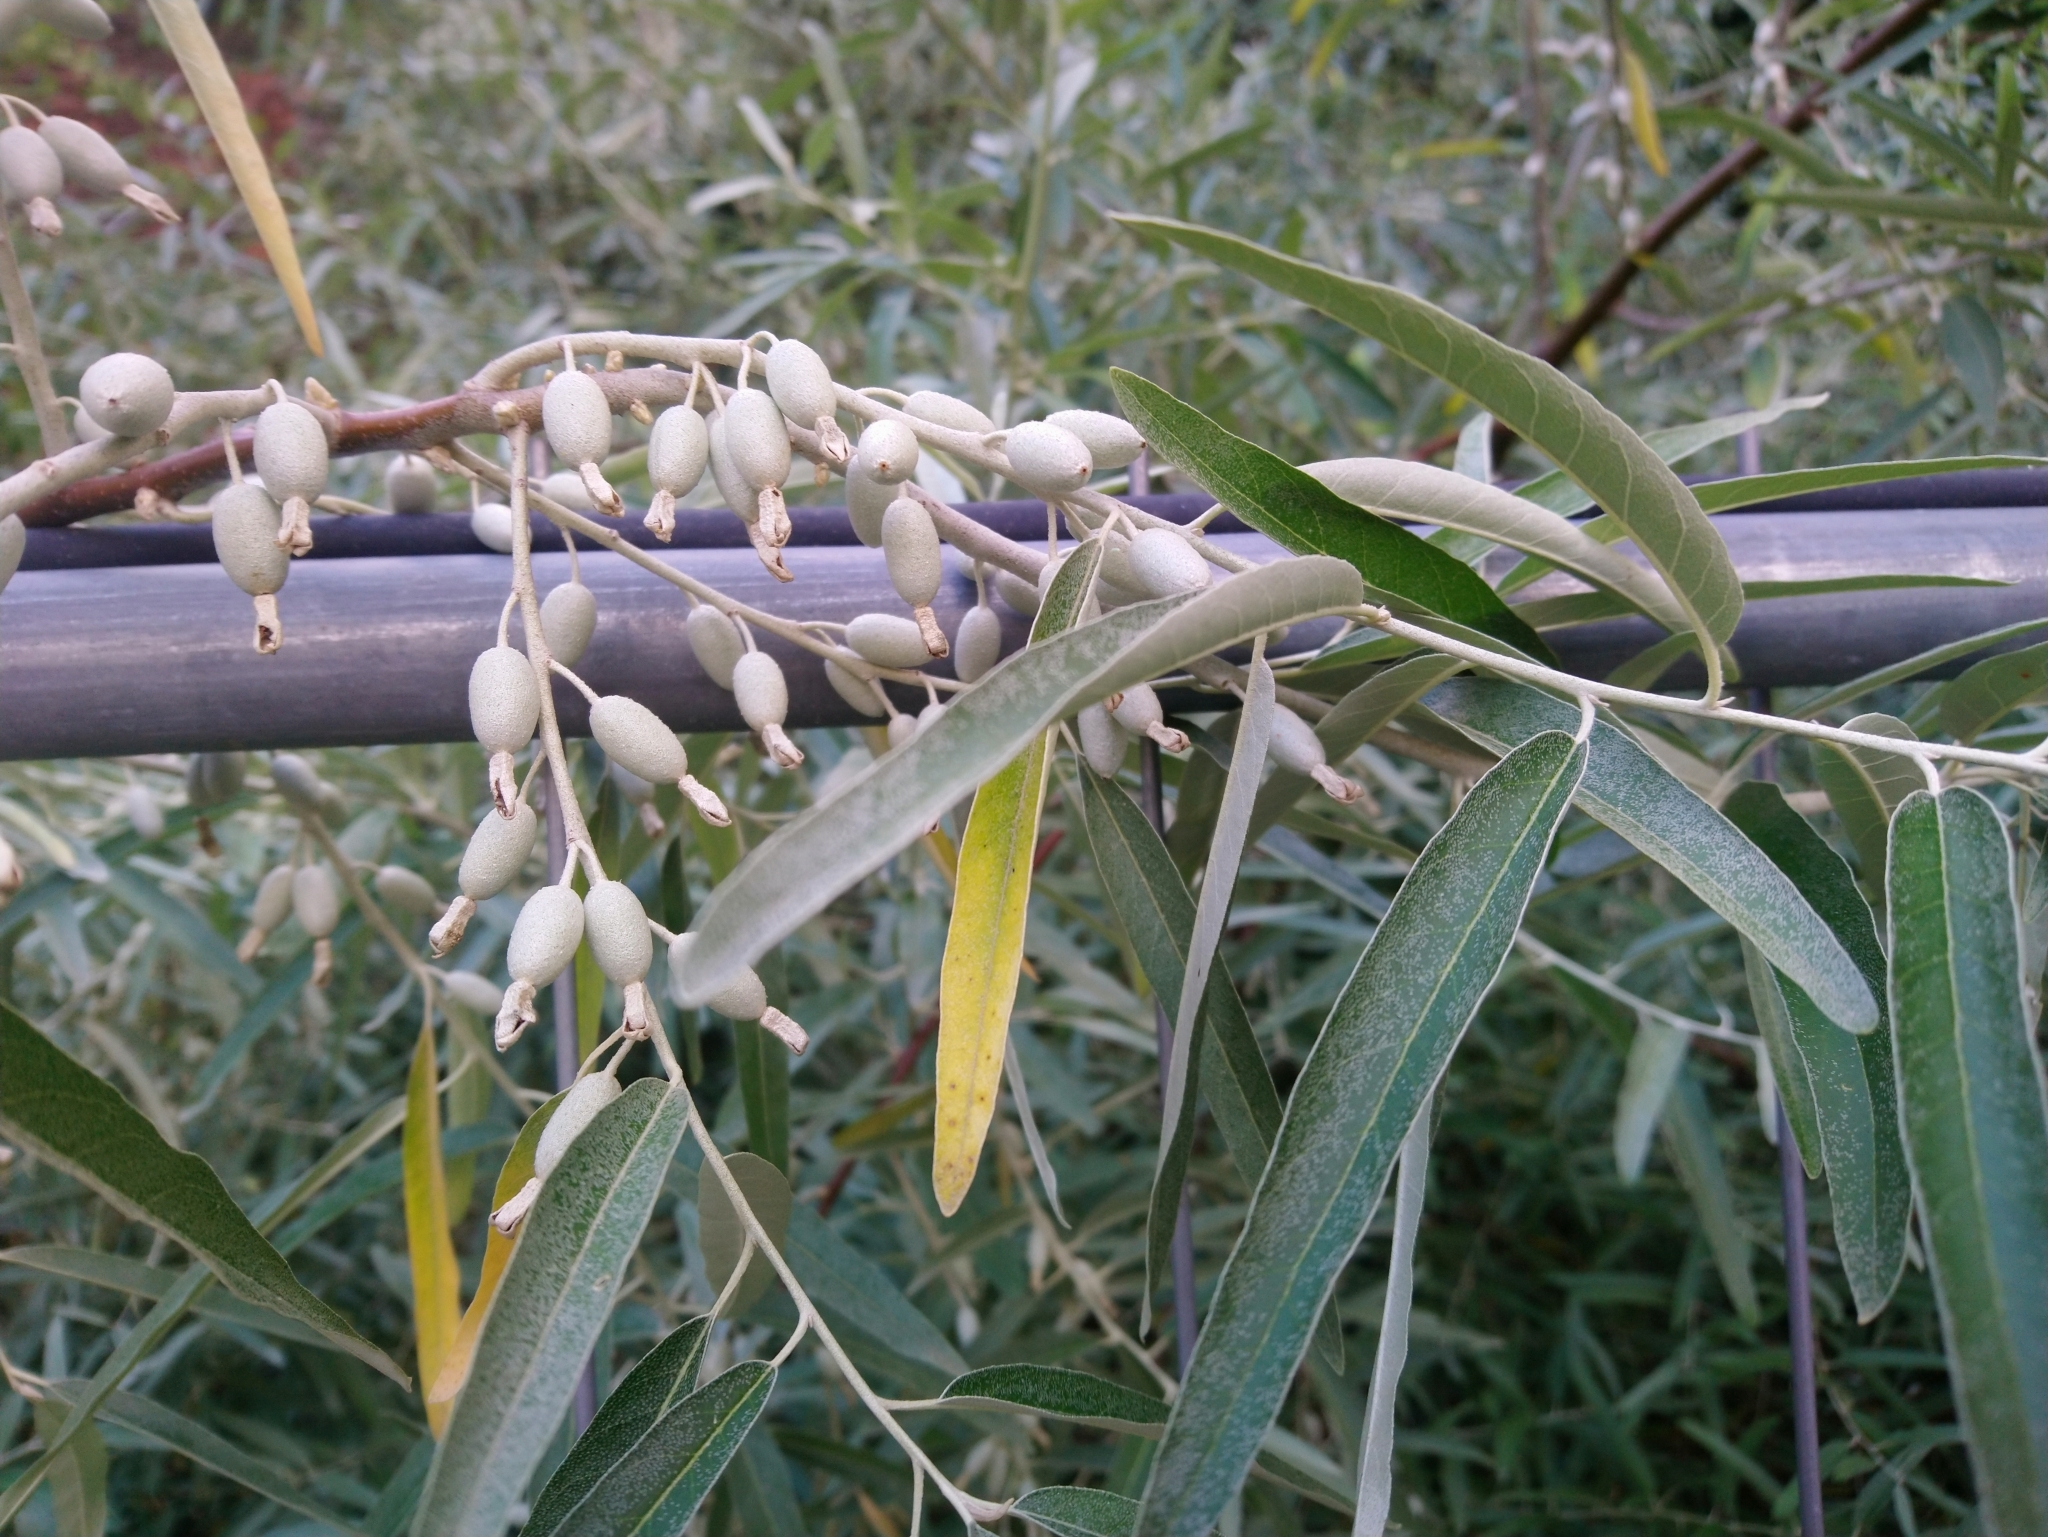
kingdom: Plantae
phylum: Tracheophyta
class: Magnoliopsida
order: Rosales
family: Elaeagnaceae
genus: Elaeagnus
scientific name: Elaeagnus angustifolia
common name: Russian olive
